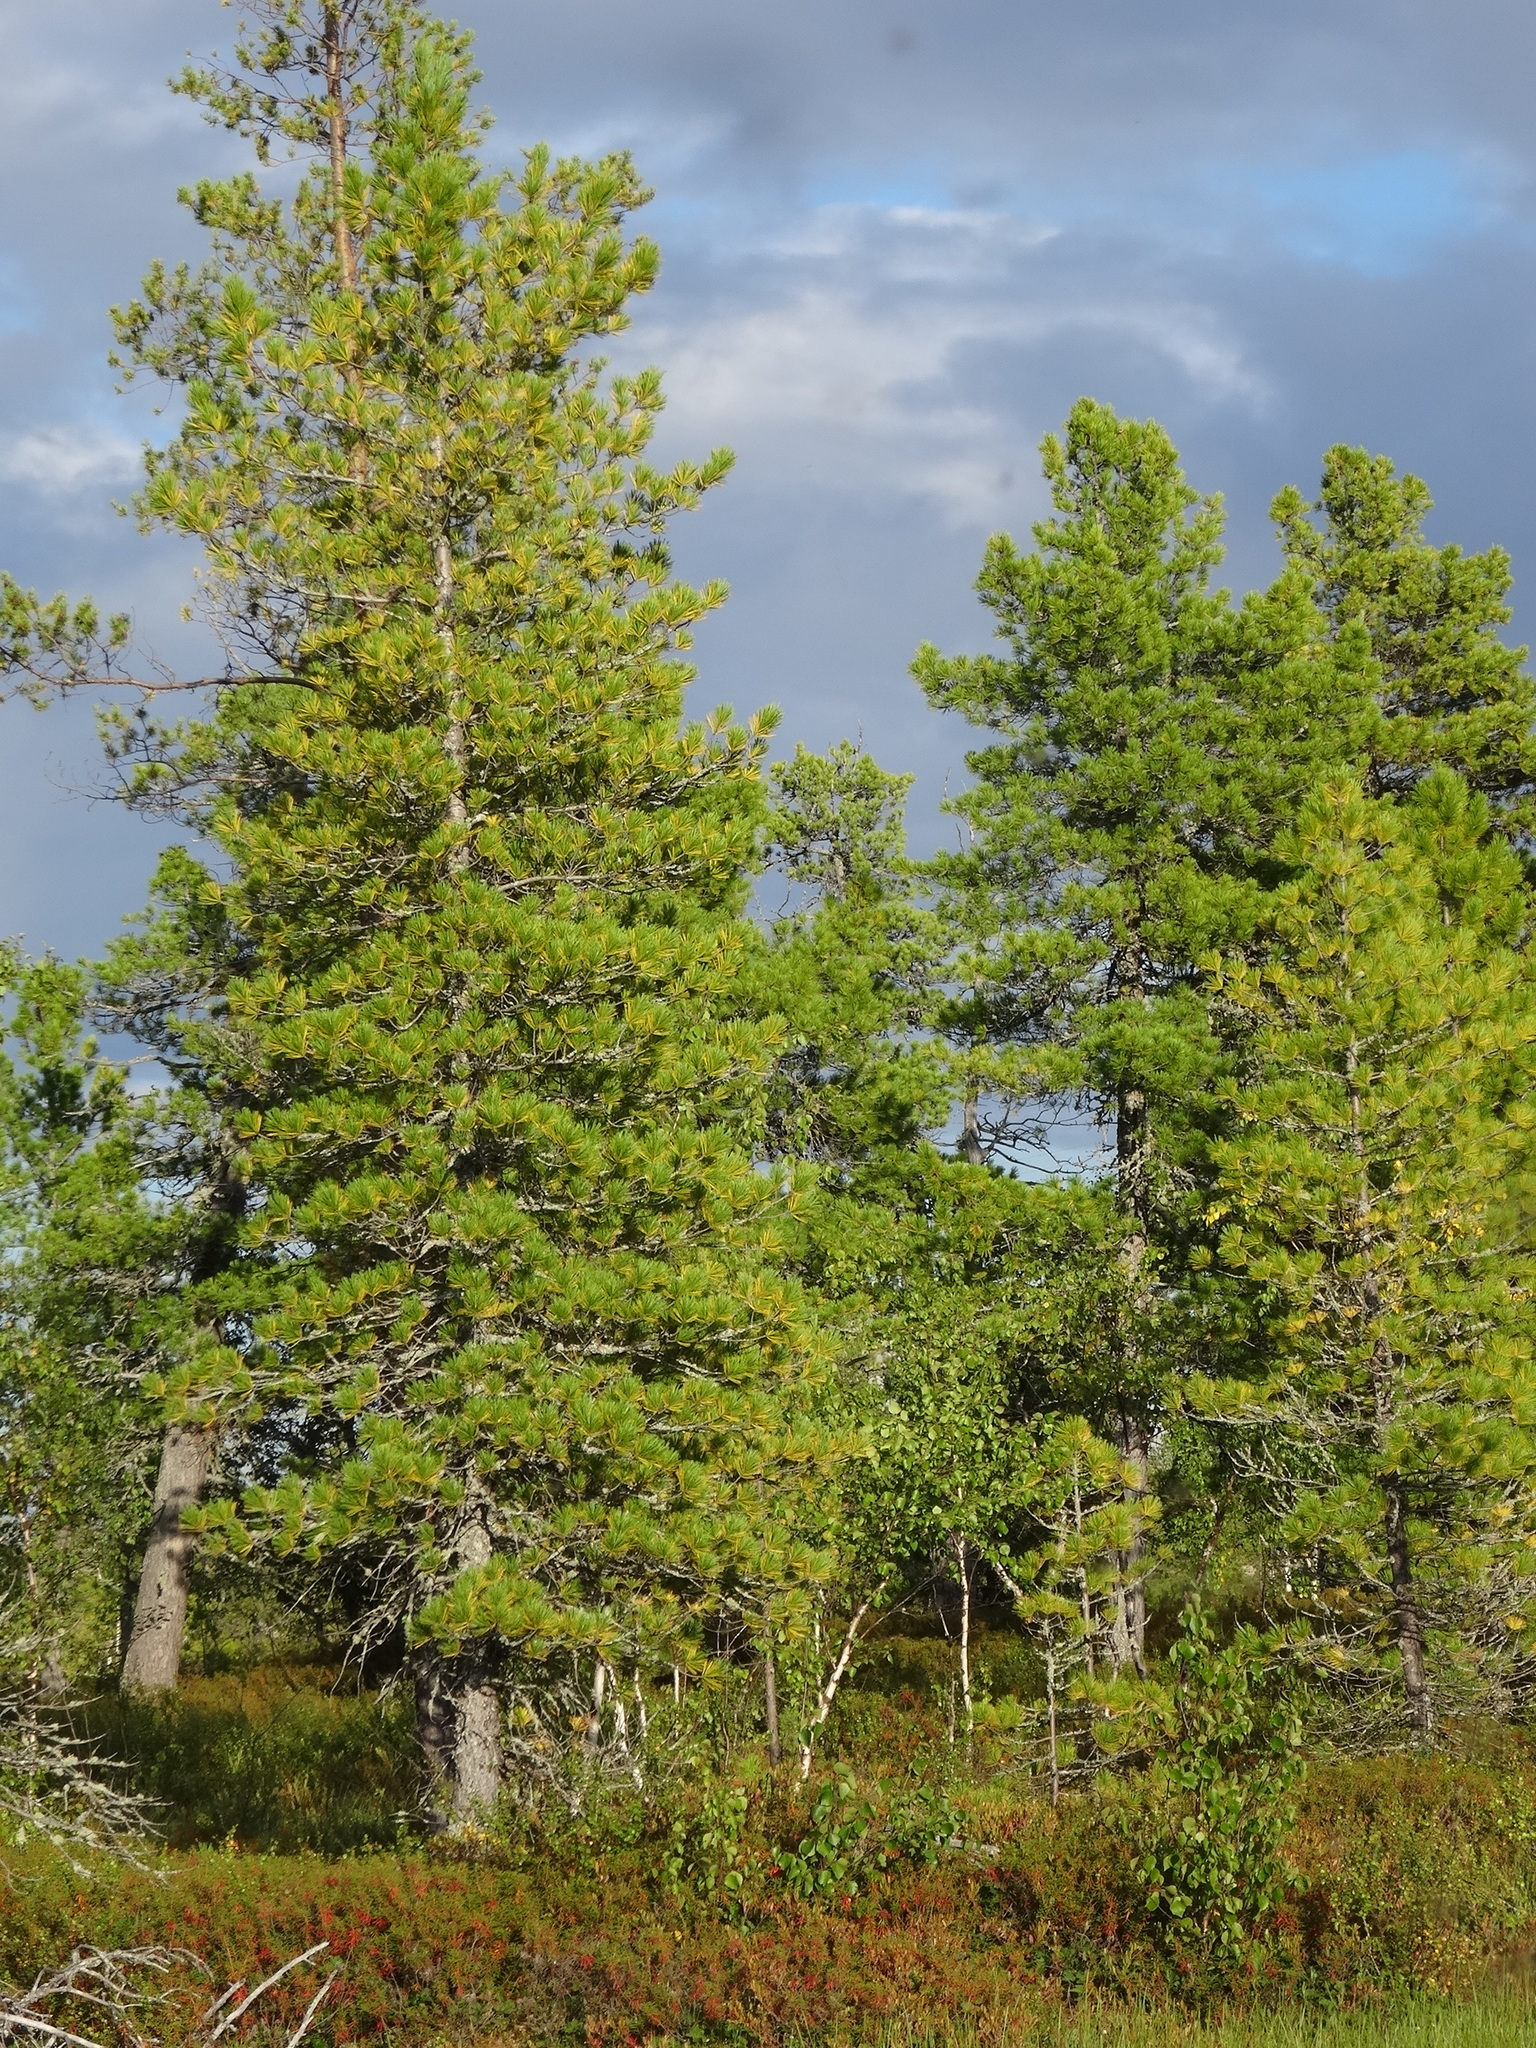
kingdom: Plantae
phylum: Tracheophyta
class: Pinopsida
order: Pinales
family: Pinaceae
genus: Pinus
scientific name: Pinus sibirica
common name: Siberian pine
